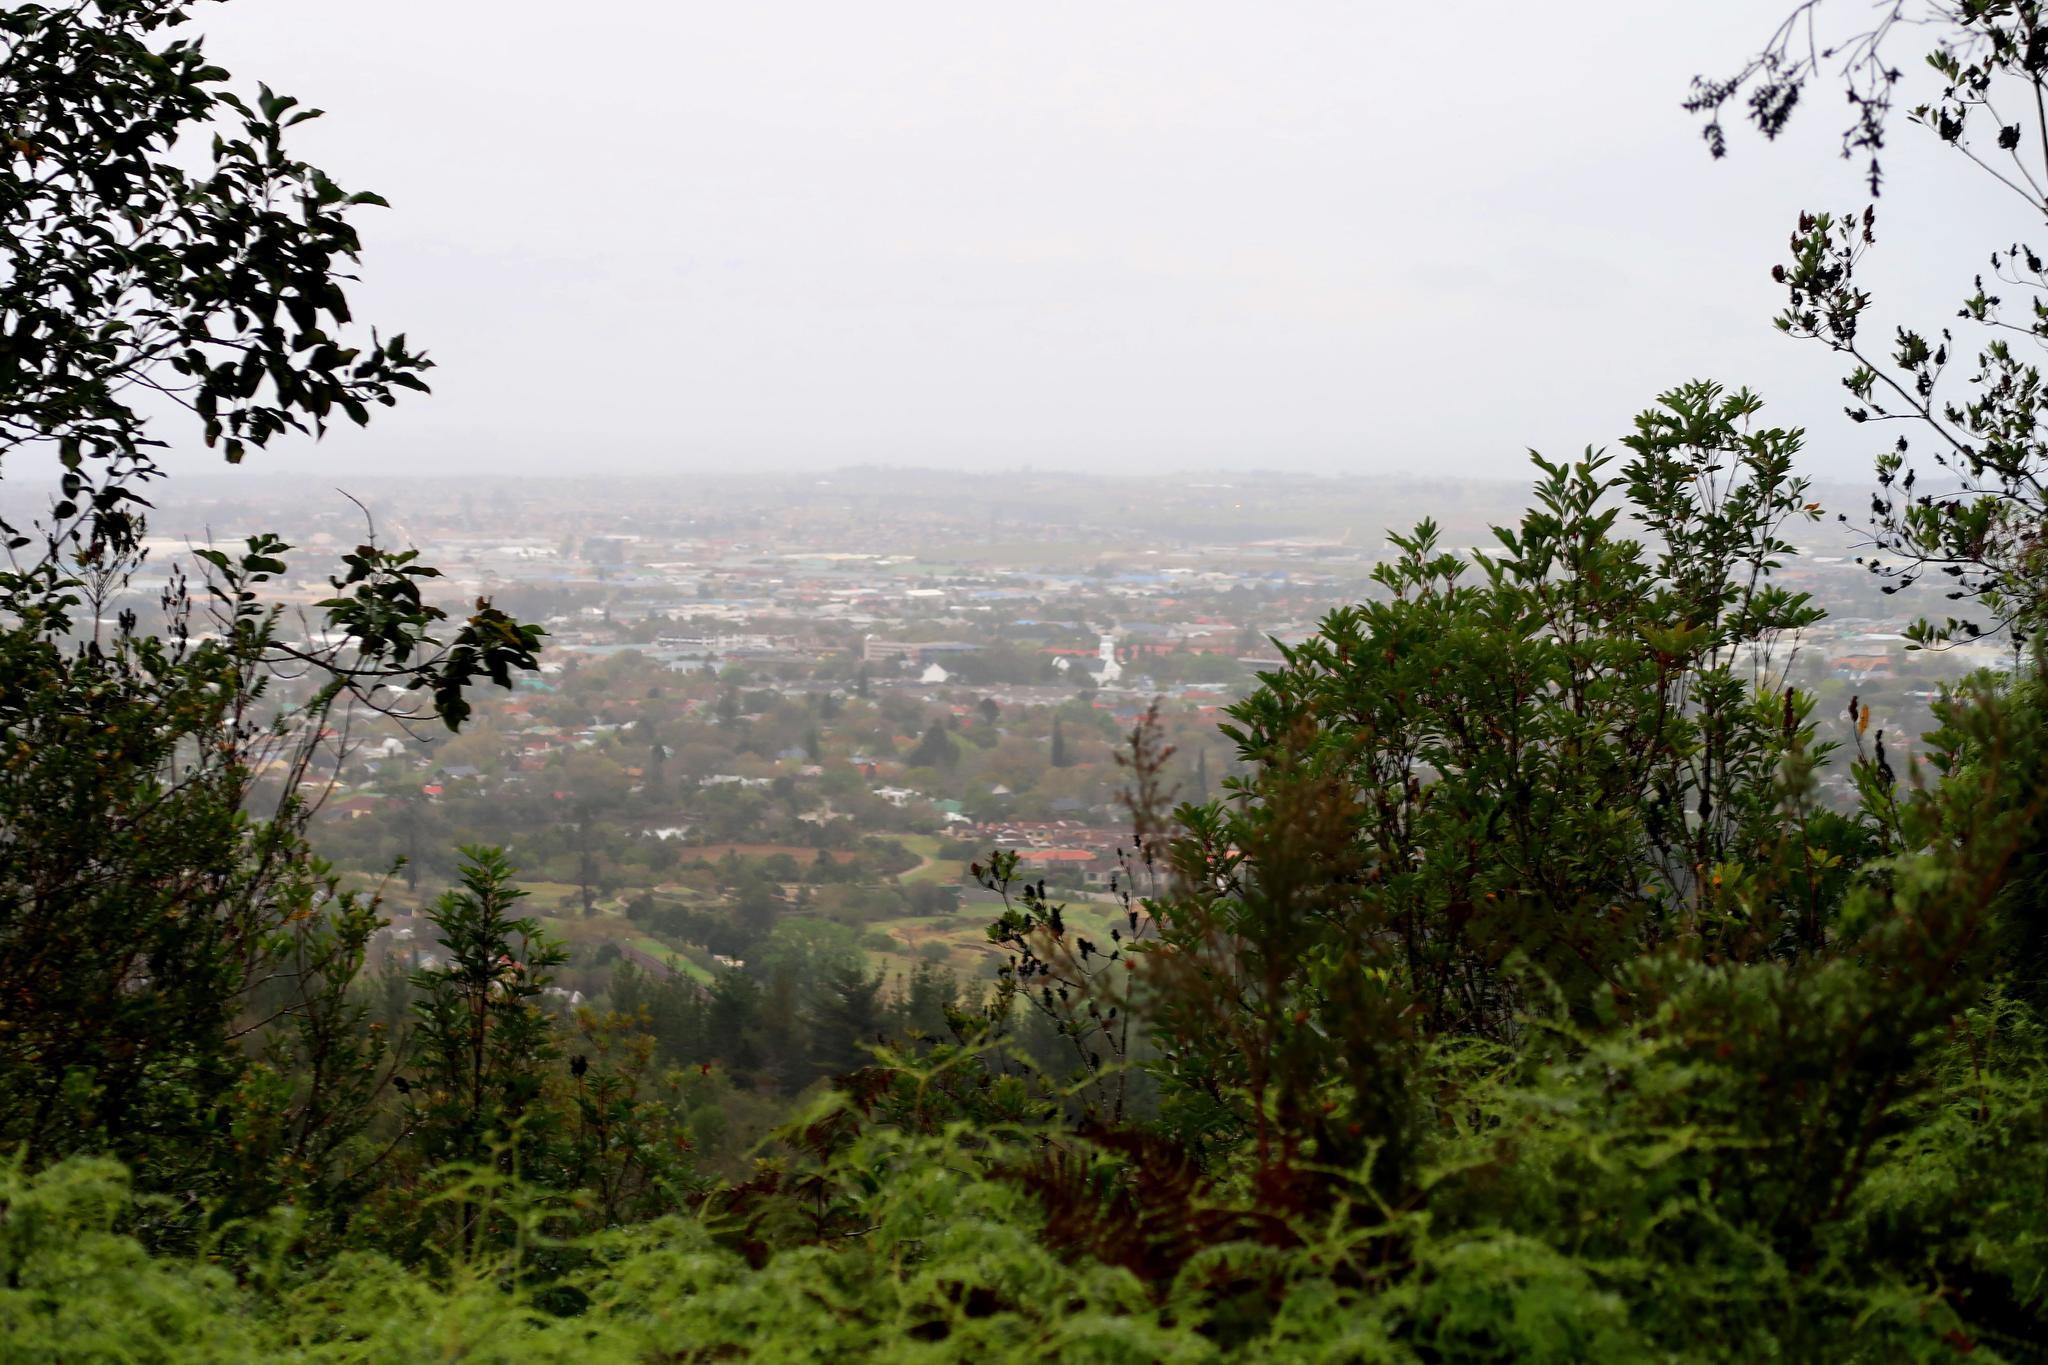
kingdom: Plantae
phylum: Tracheophyta
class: Polypodiopsida
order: Gleicheniales
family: Gleicheniaceae
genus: Gleichenia
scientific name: Gleichenia polypodioides
